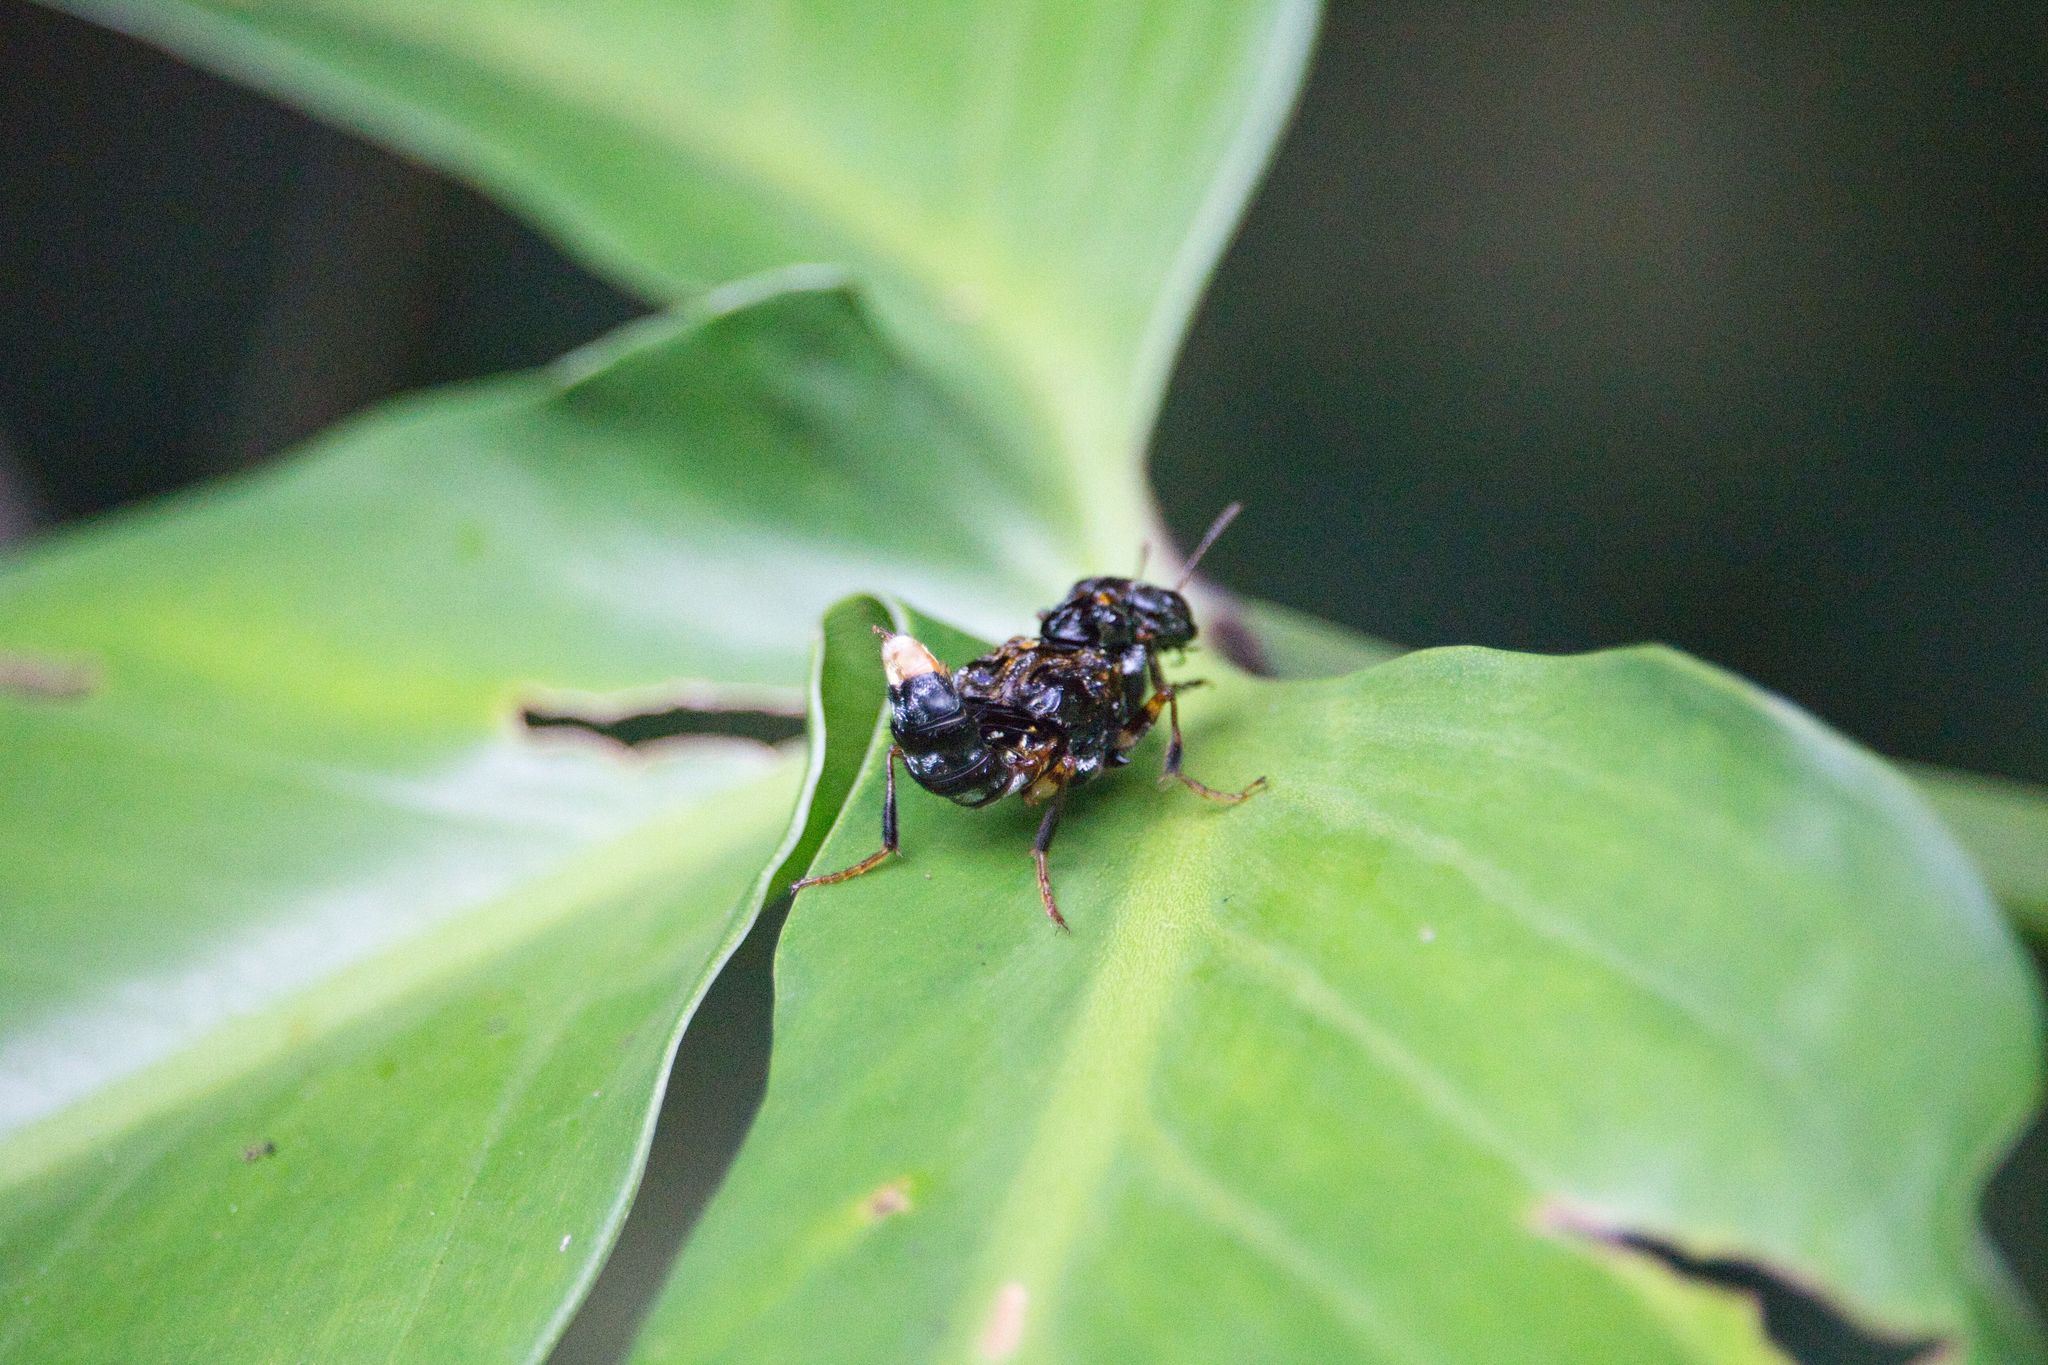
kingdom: Animalia
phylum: Arthropoda
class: Insecta
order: Coleoptera
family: Staphylinidae
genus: Leistotrophus
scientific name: Leistotrophus versicolor
